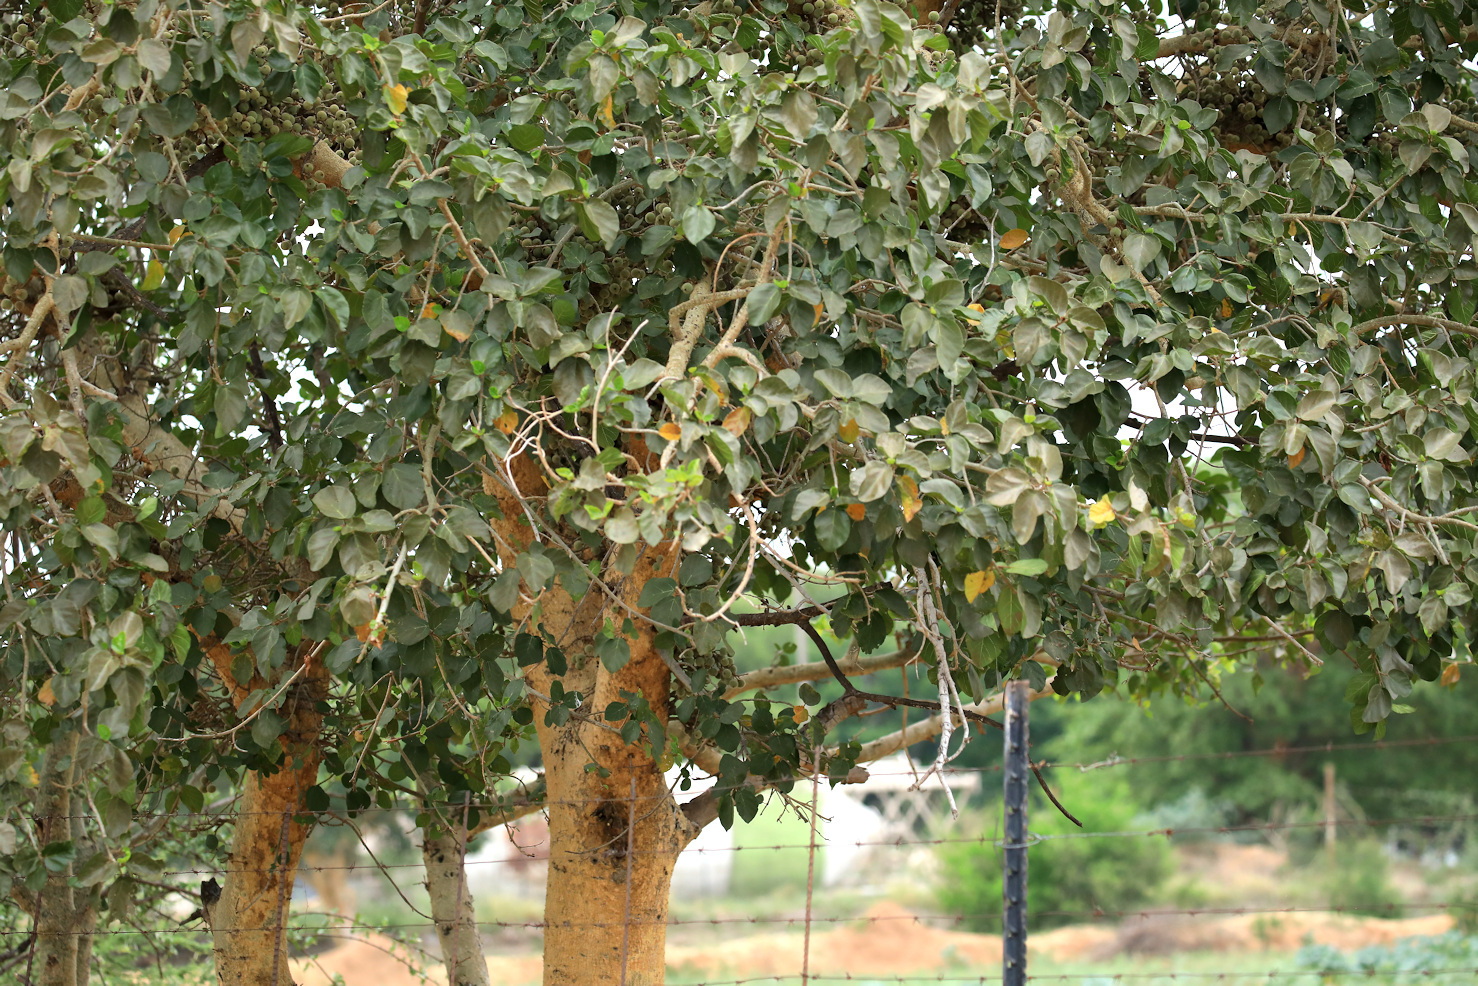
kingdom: Plantae
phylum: Tracheophyta
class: Magnoliopsida
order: Rosales
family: Moraceae
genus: Ficus
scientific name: Ficus sycomorus
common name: Sycomore
